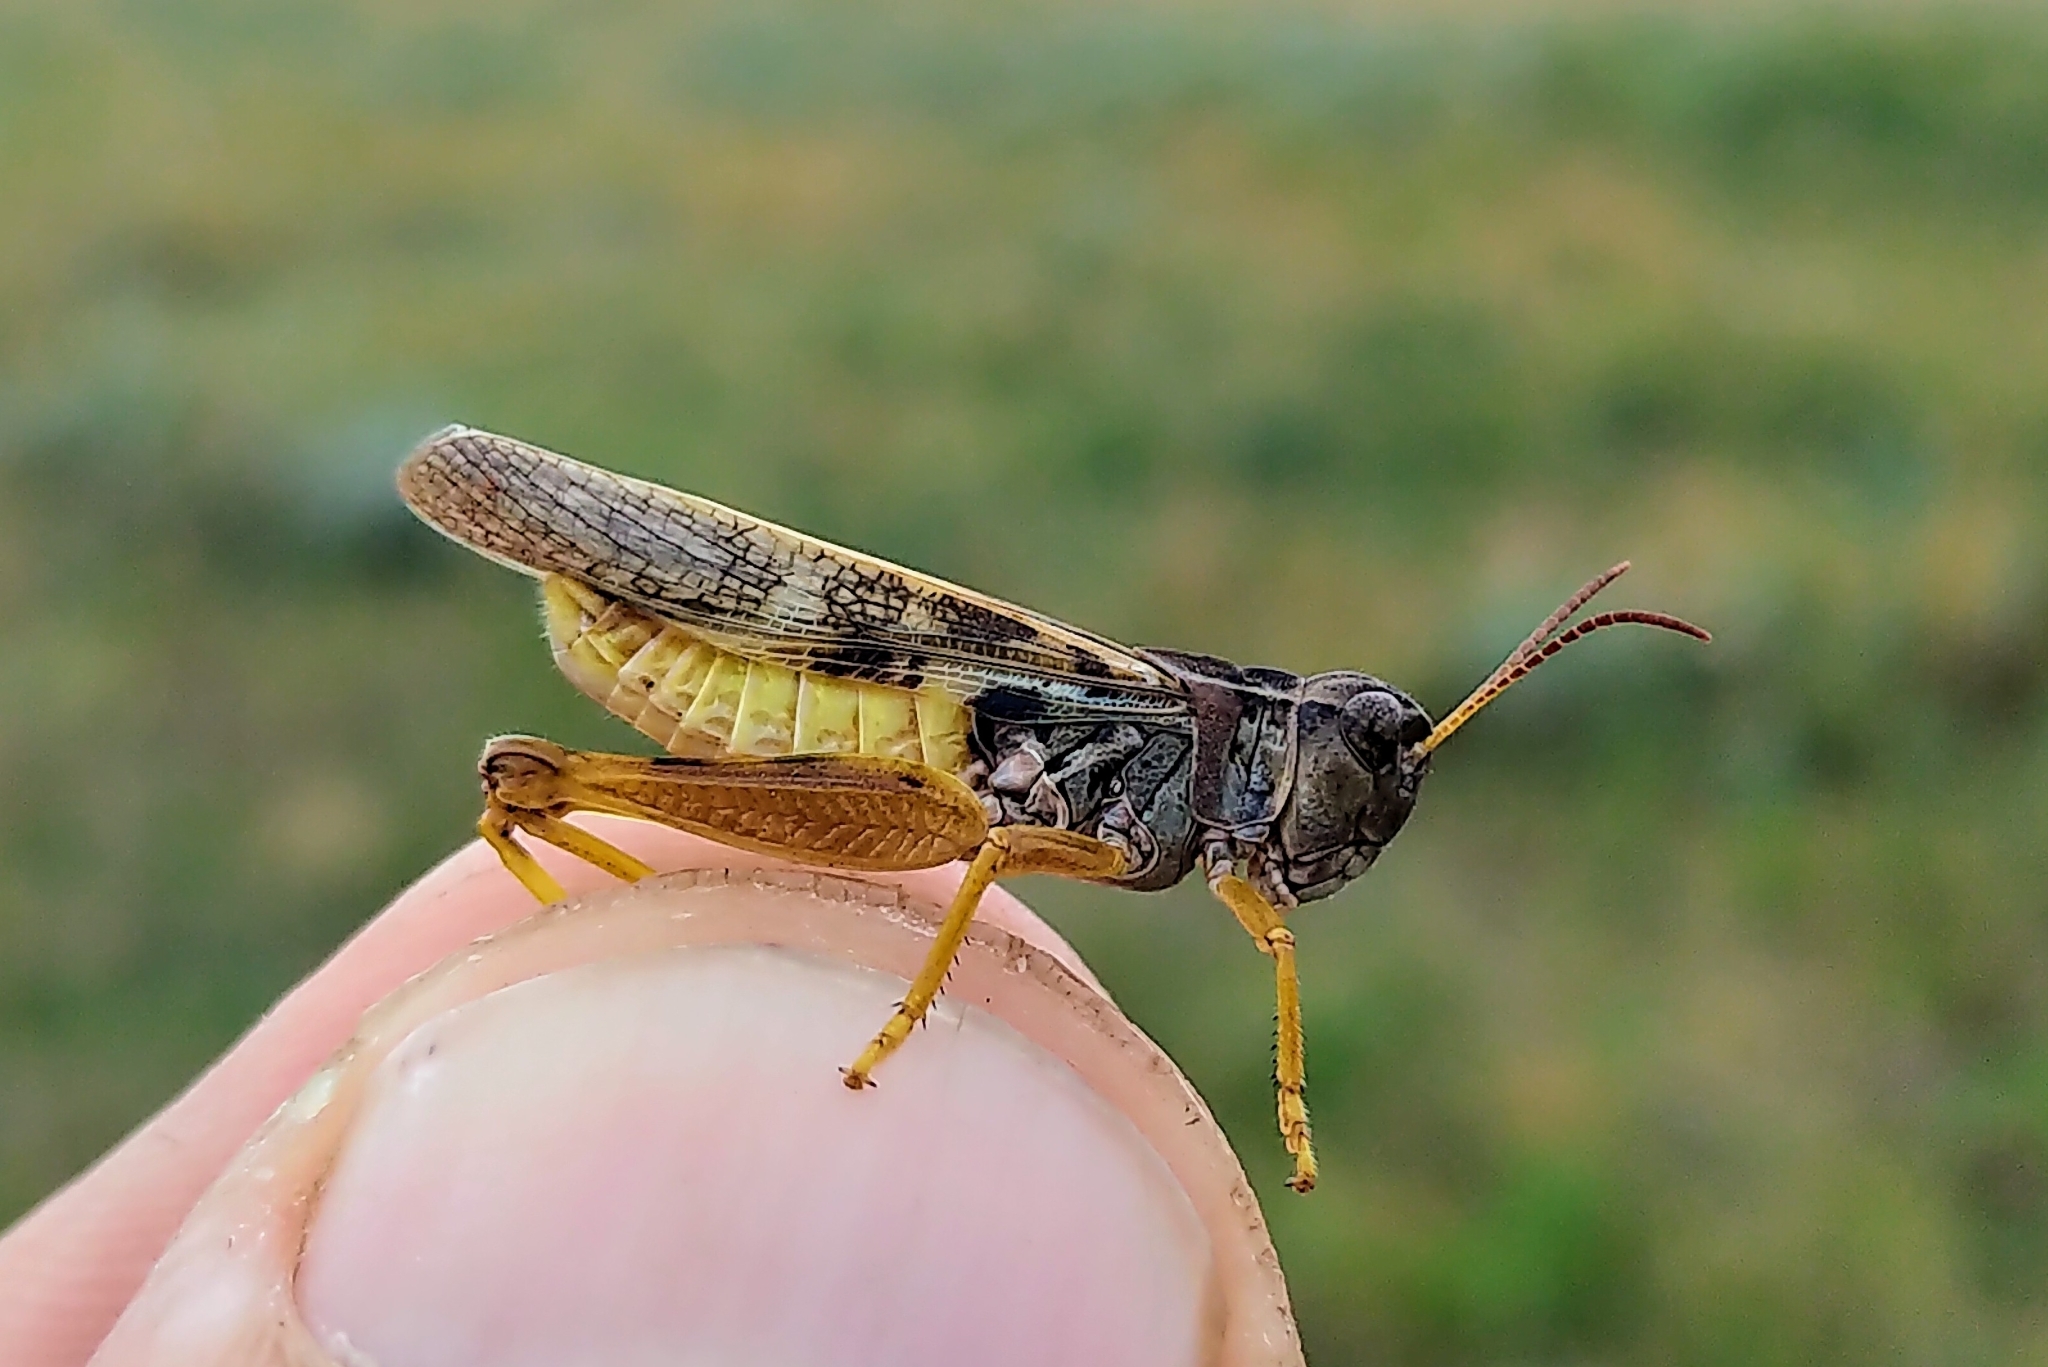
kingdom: Animalia
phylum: Arthropoda
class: Insecta
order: Orthoptera
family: Acrididae
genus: Camnula
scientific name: Camnula pellucida
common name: Clear-winged grasshopper
